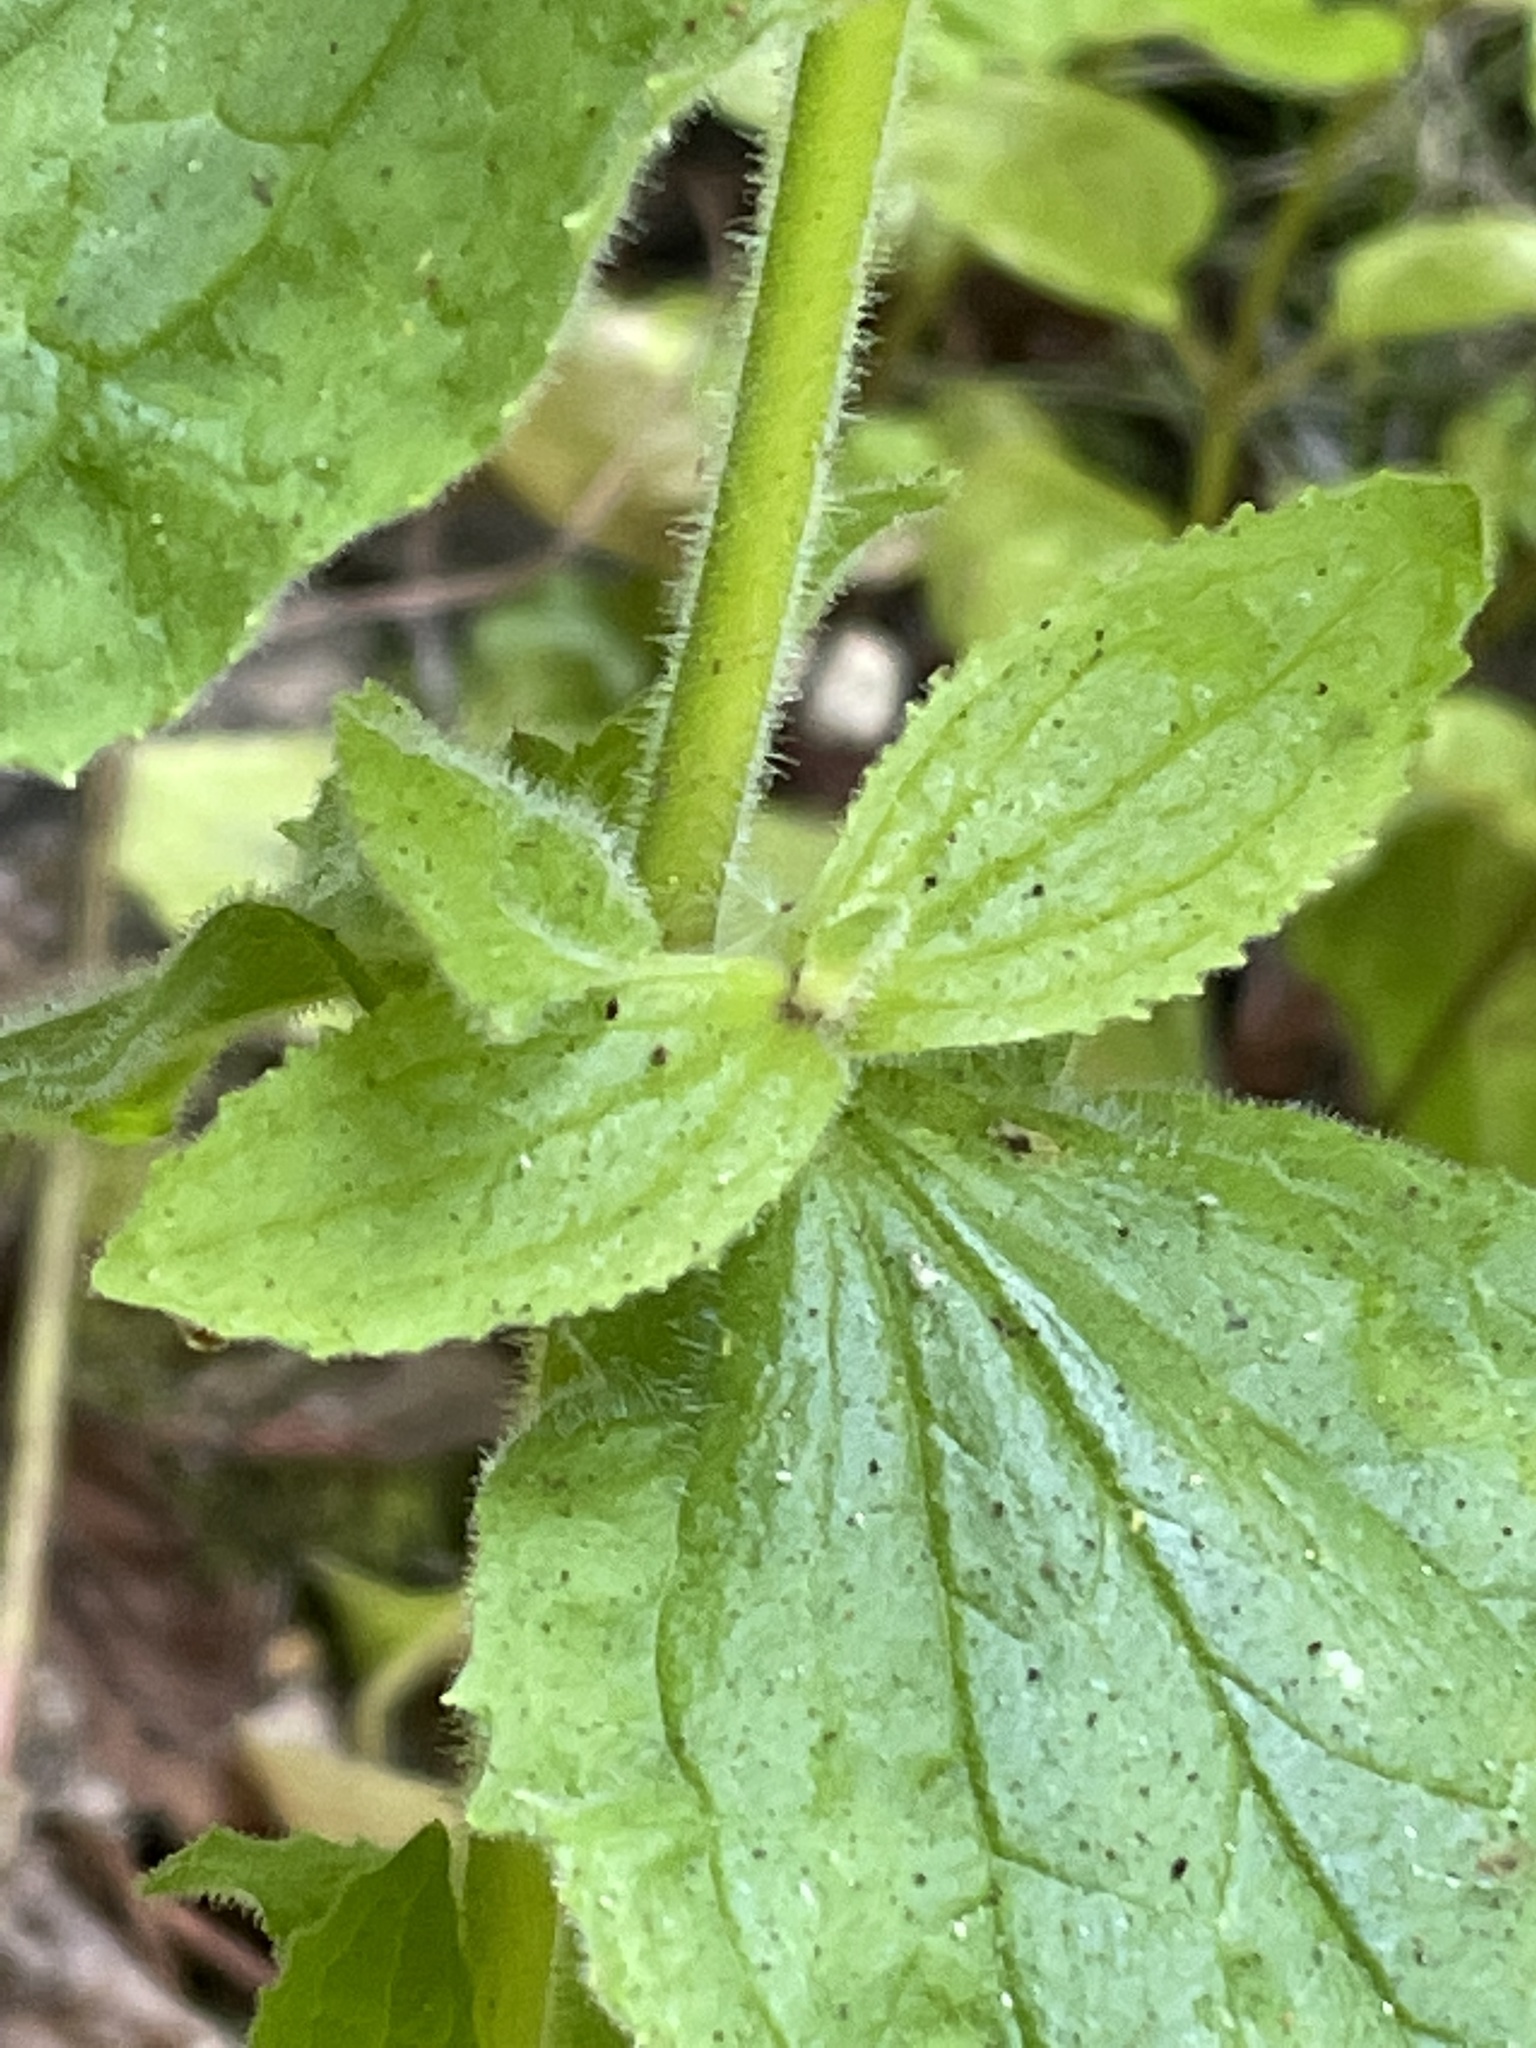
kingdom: Plantae
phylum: Tracheophyta
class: Magnoliopsida
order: Lamiales
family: Phrymaceae
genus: Erythranthe
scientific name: Erythranthe cardinalis
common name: Scarlet monkey-flower
